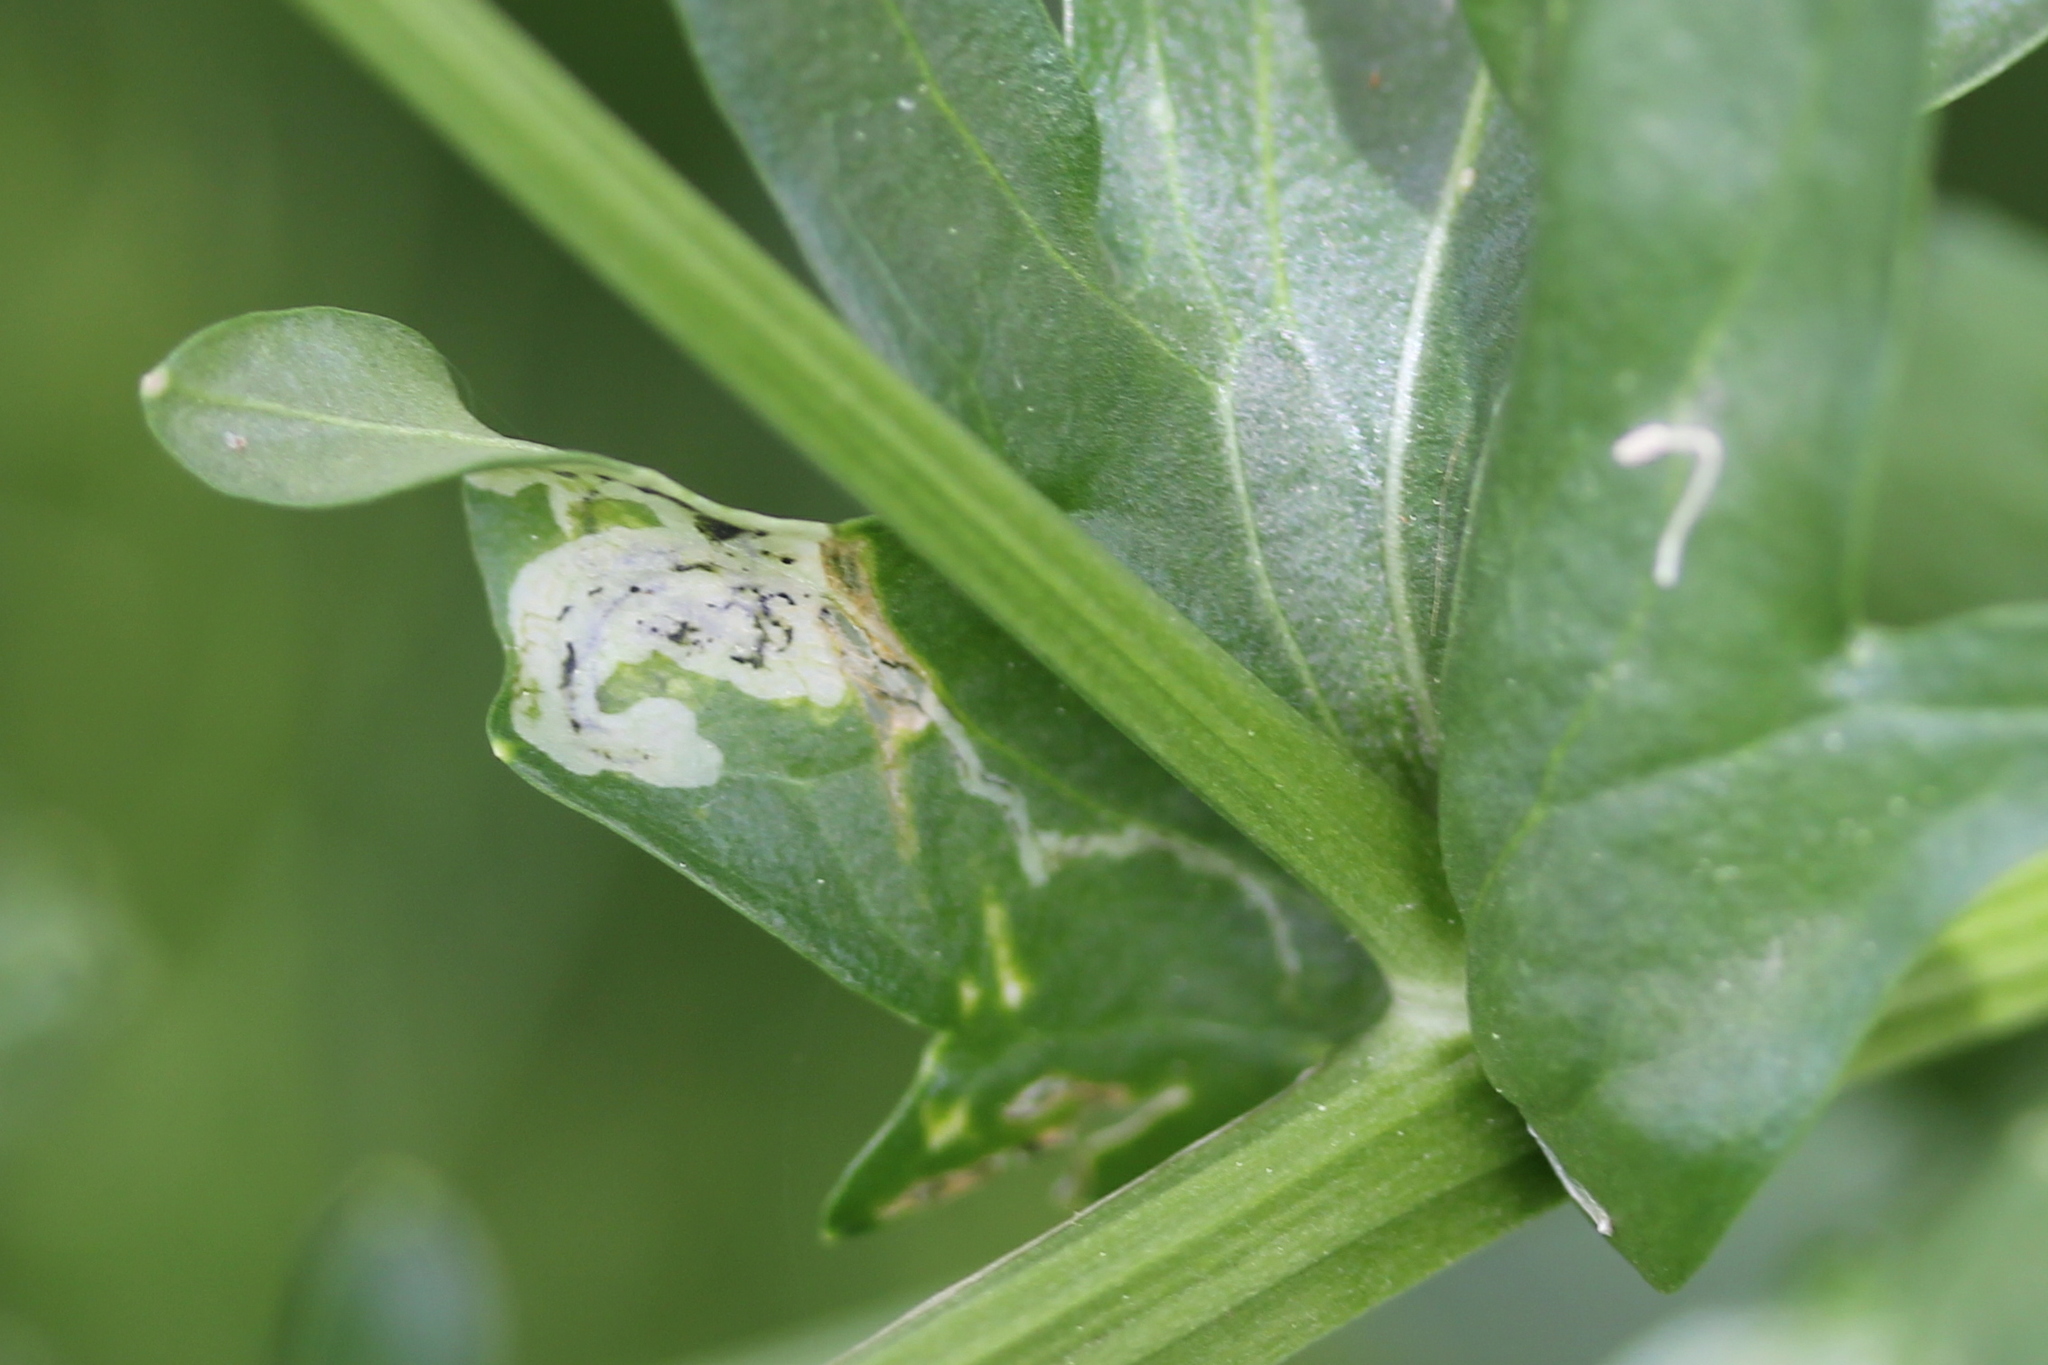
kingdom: Animalia
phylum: Arthropoda
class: Insecta
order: Diptera
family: Agromyzidae
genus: Liriomyza
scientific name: Liriomyza brassicae
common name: Serpentine leaf miner
